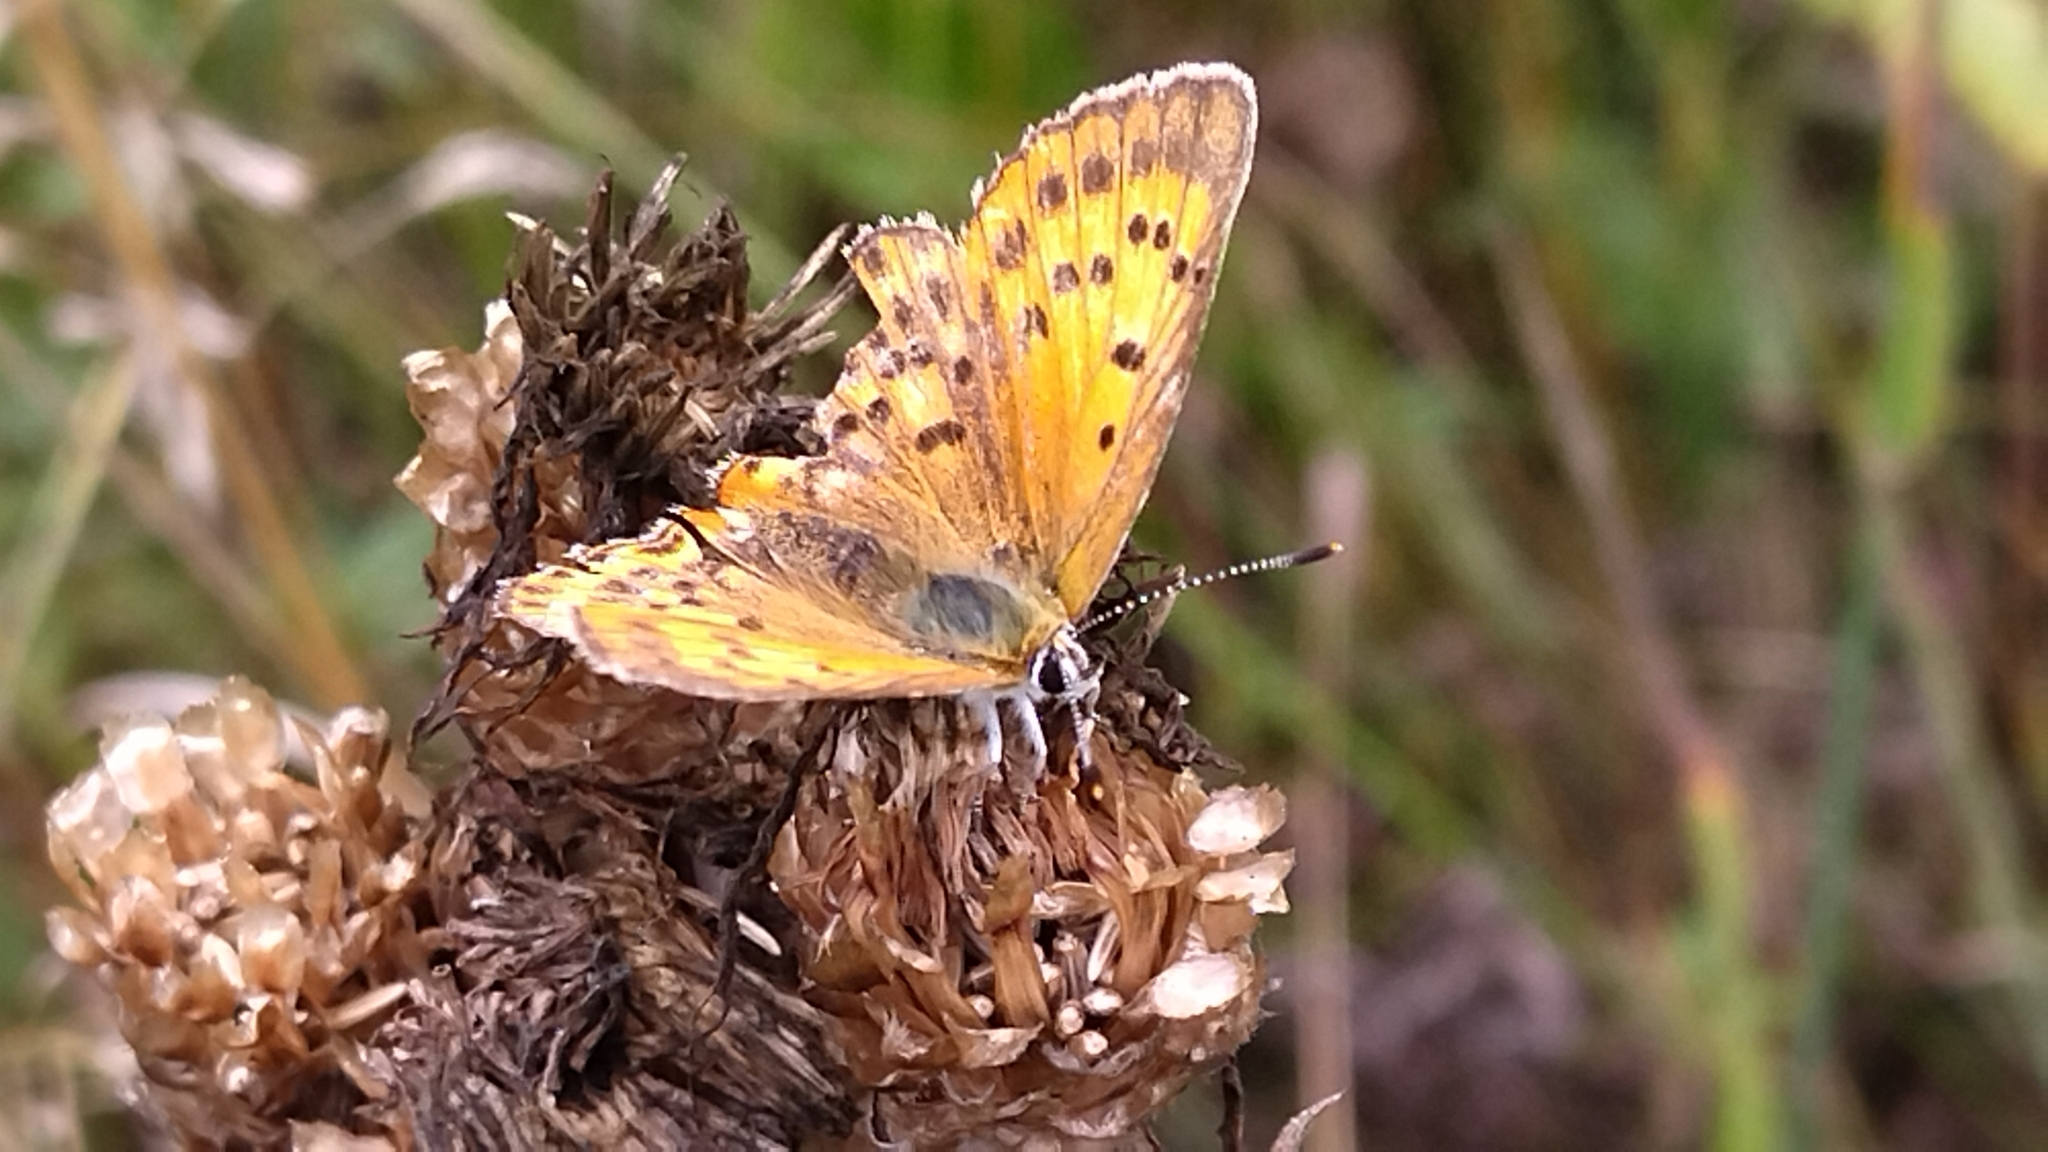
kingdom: Animalia
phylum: Arthropoda
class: Insecta
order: Lepidoptera
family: Lycaenidae
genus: Lycaena
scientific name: Lycaena virgaureae
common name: Scarce copper
